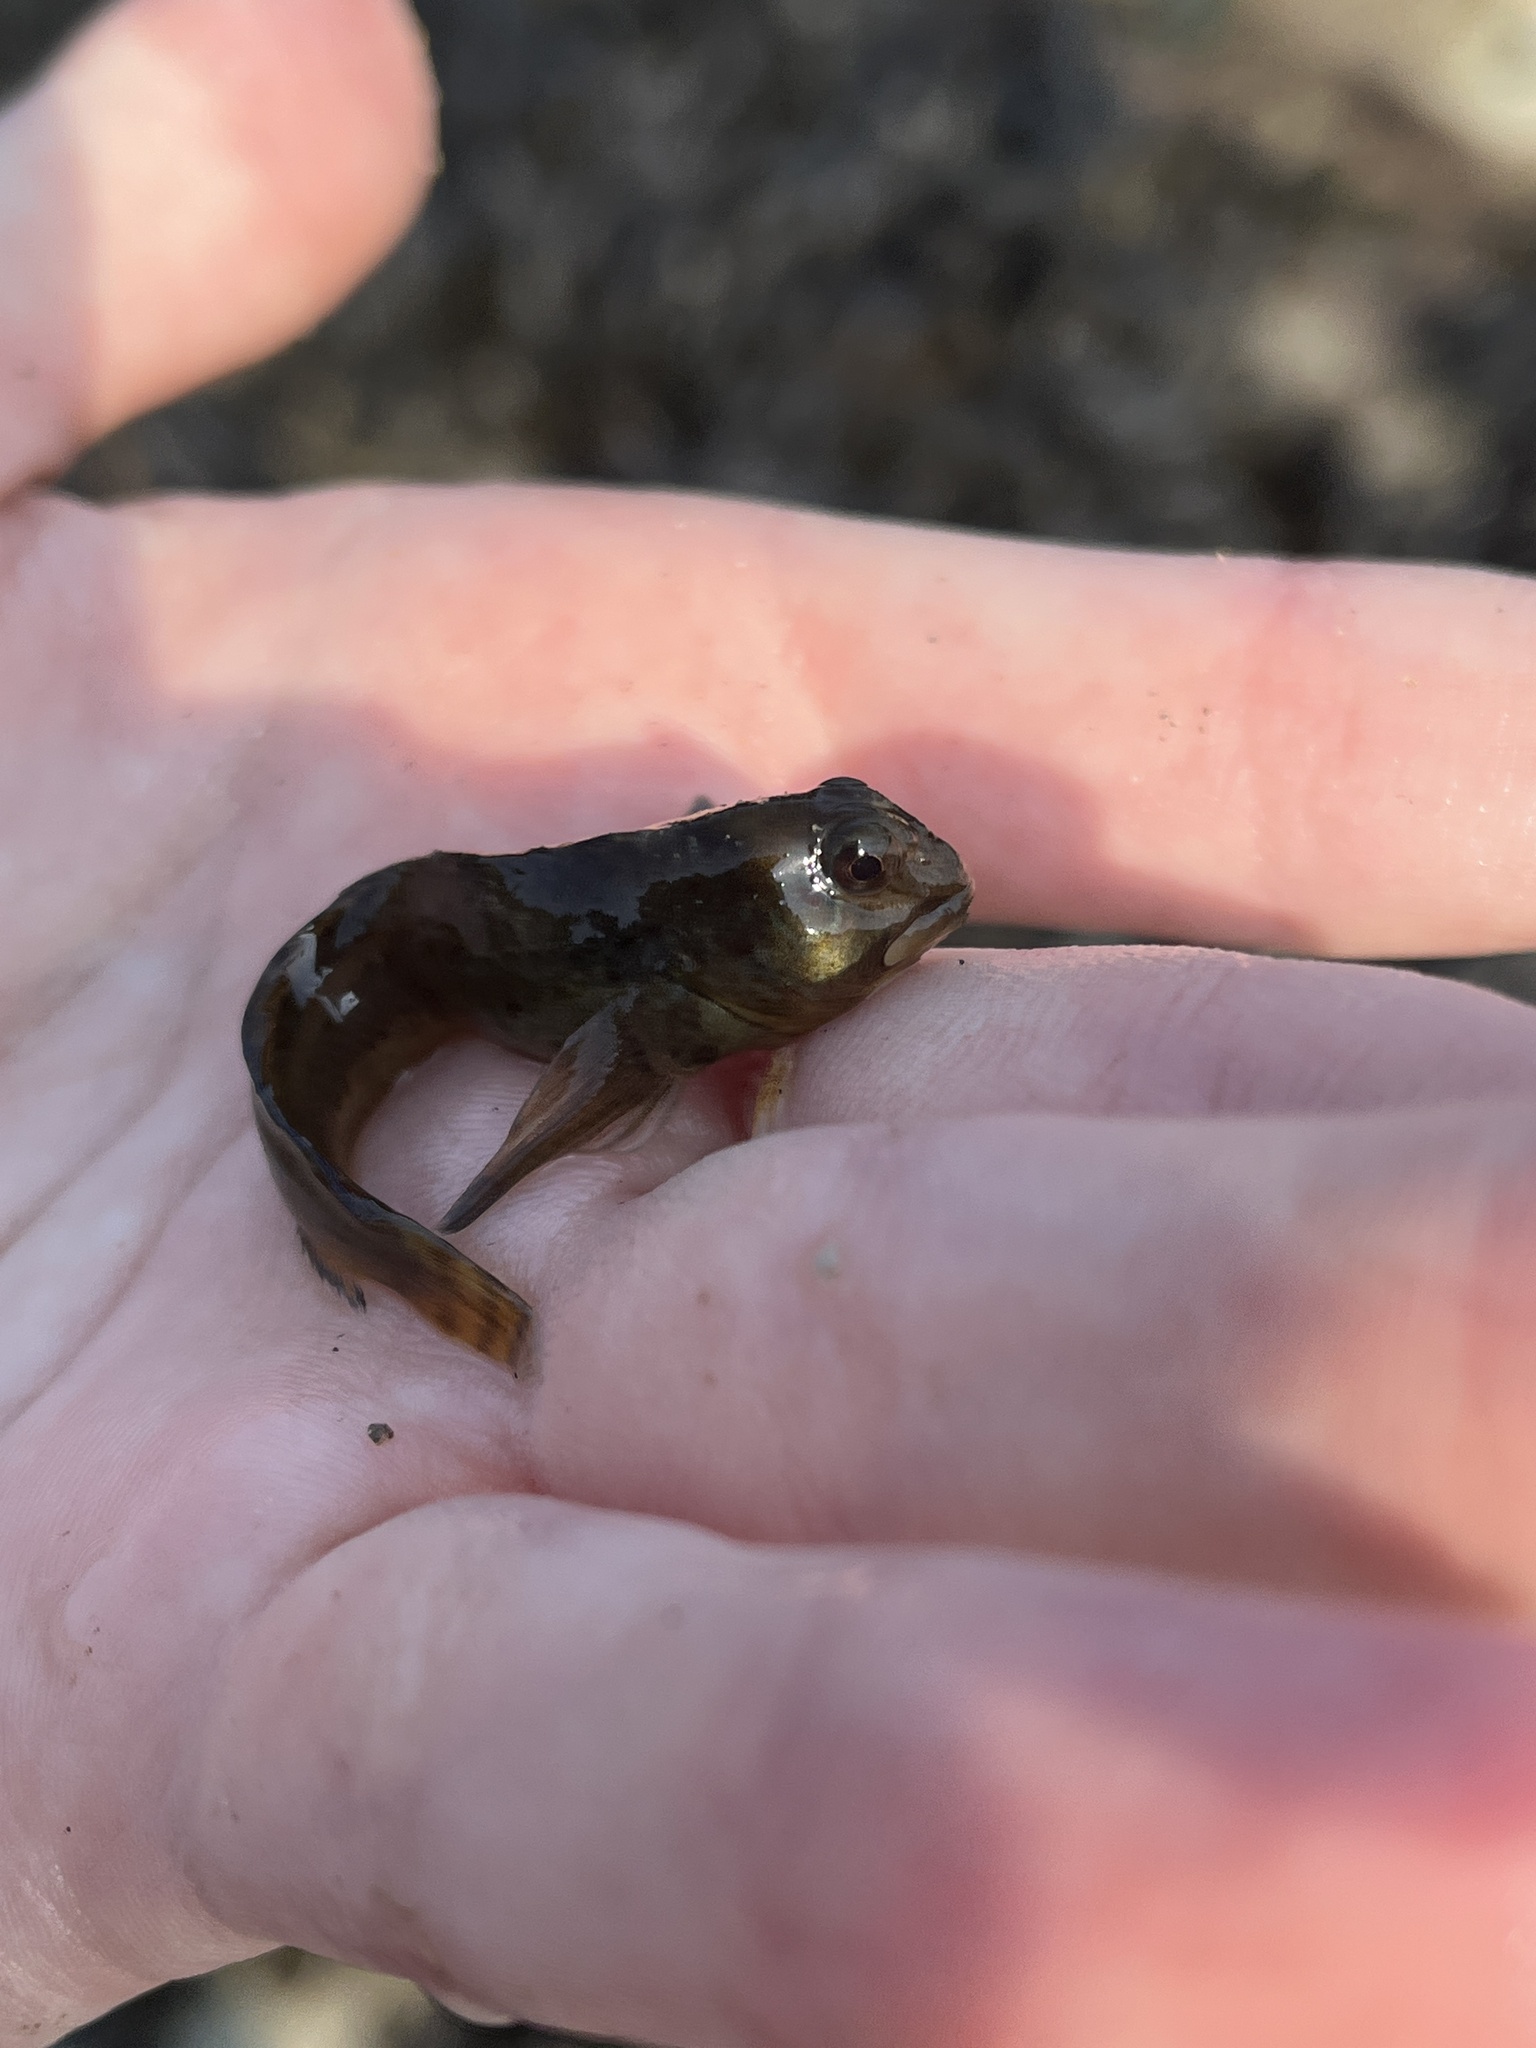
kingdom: Animalia
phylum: Chordata
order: Perciformes
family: Blenniidae
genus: Lipophrys
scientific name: Lipophrys pholis
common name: Shanny
